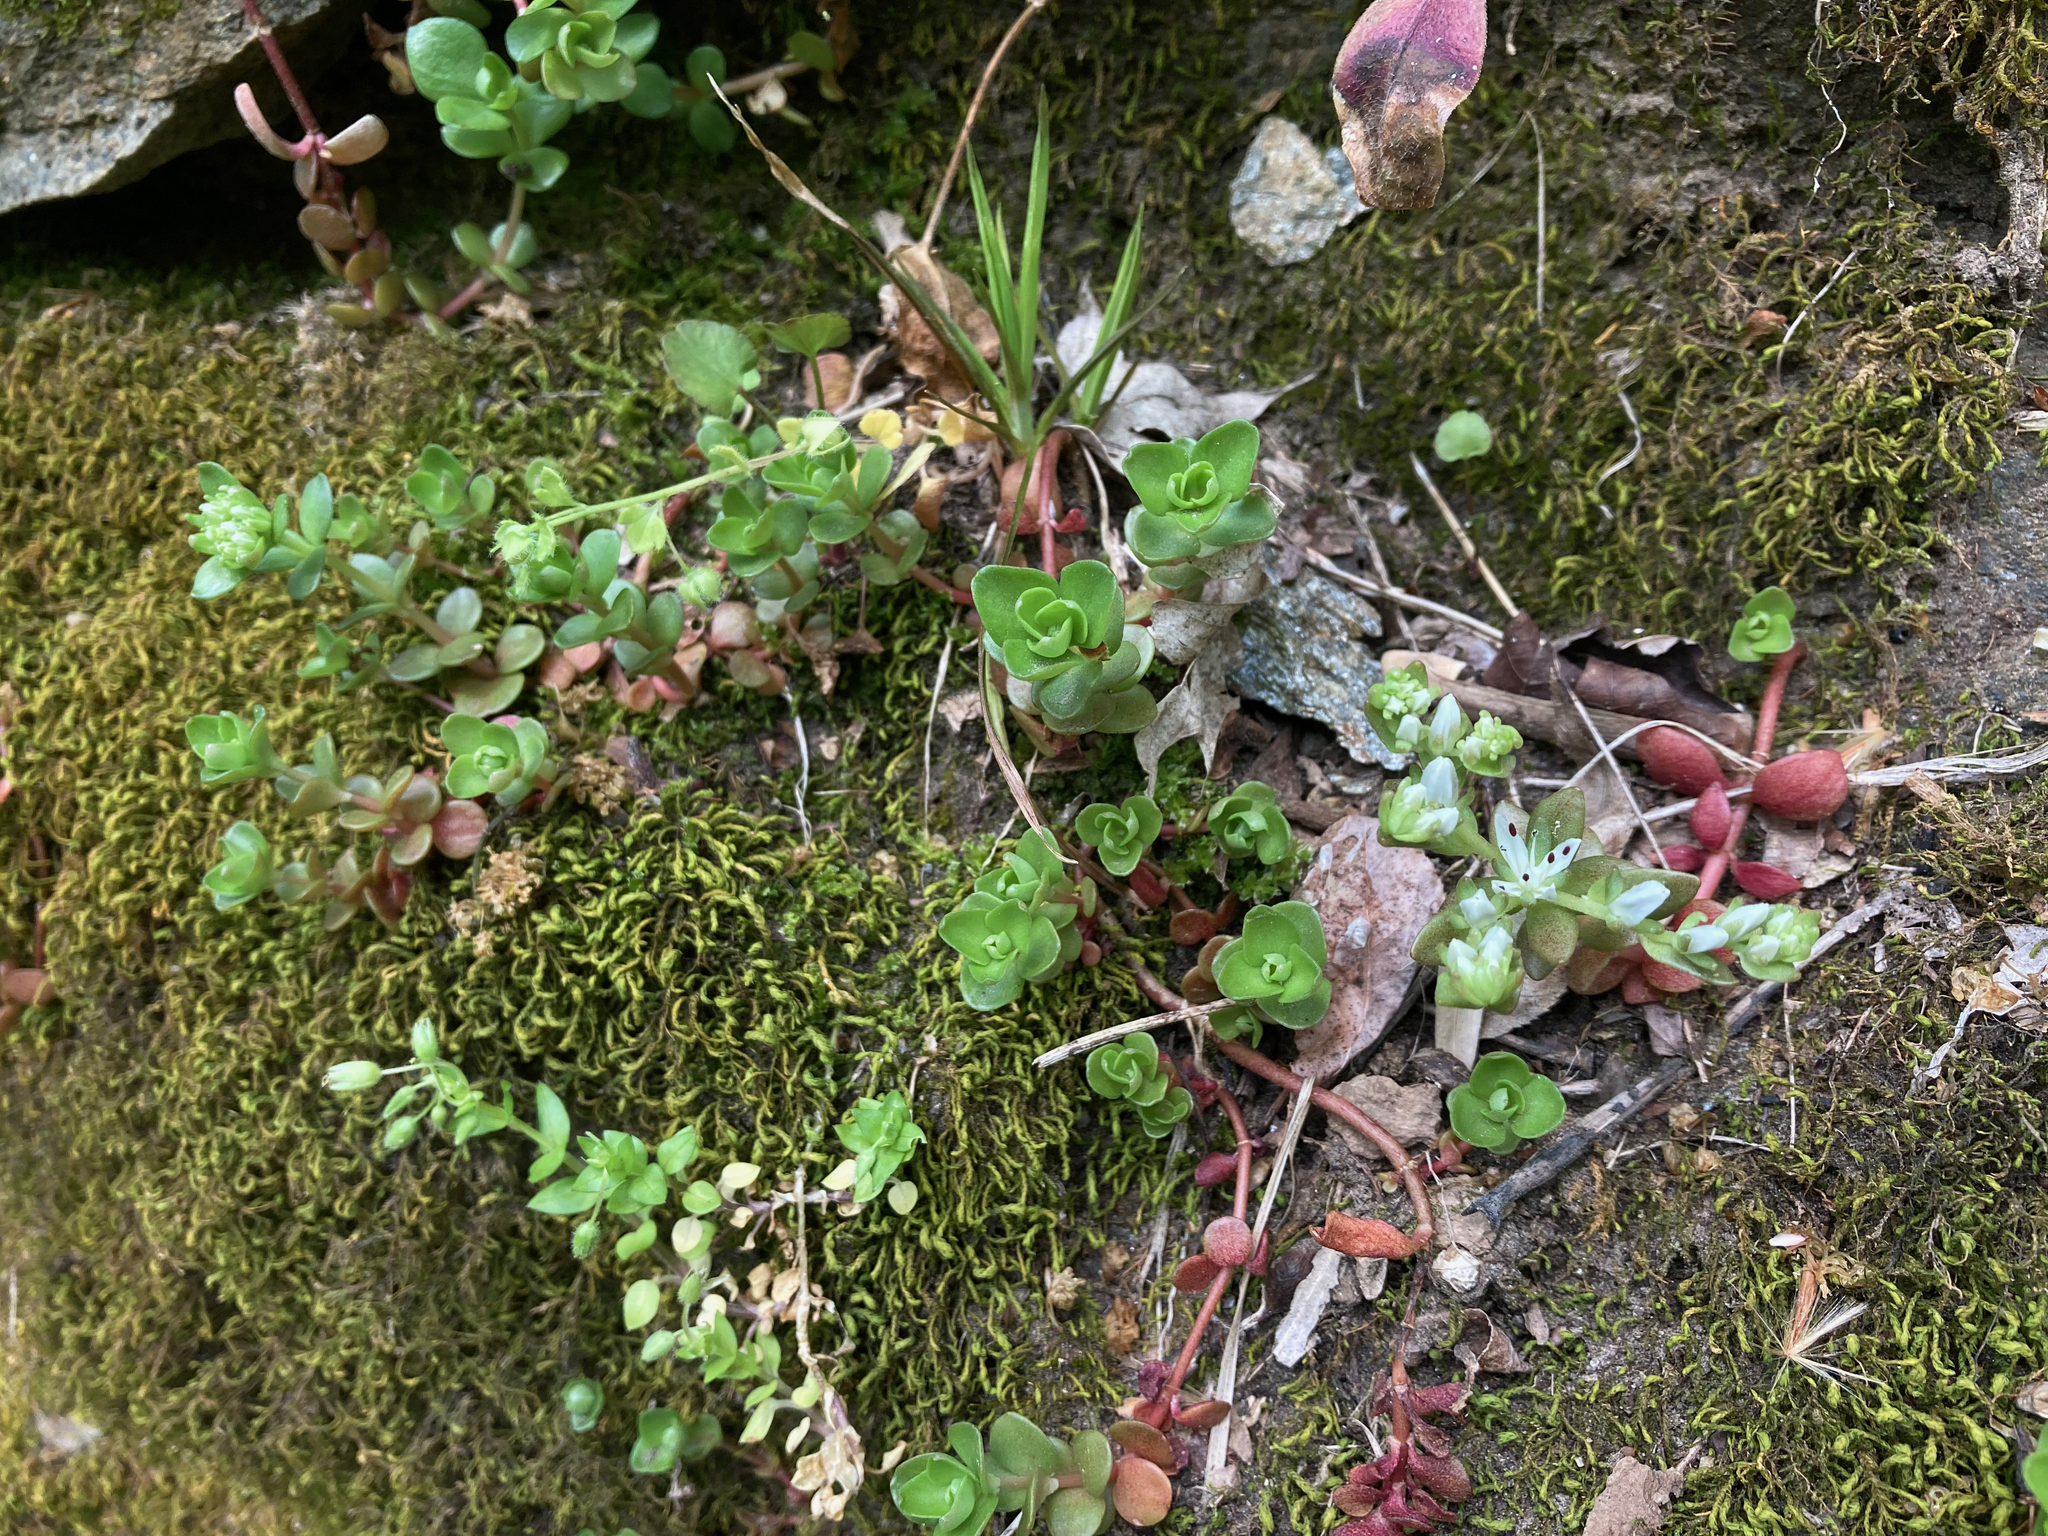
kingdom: Plantae
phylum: Tracheophyta
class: Magnoliopsida
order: Saxifragales
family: Crassulaceae
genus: Sedum
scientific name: Sedum ternatum
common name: Wild stonecrop
